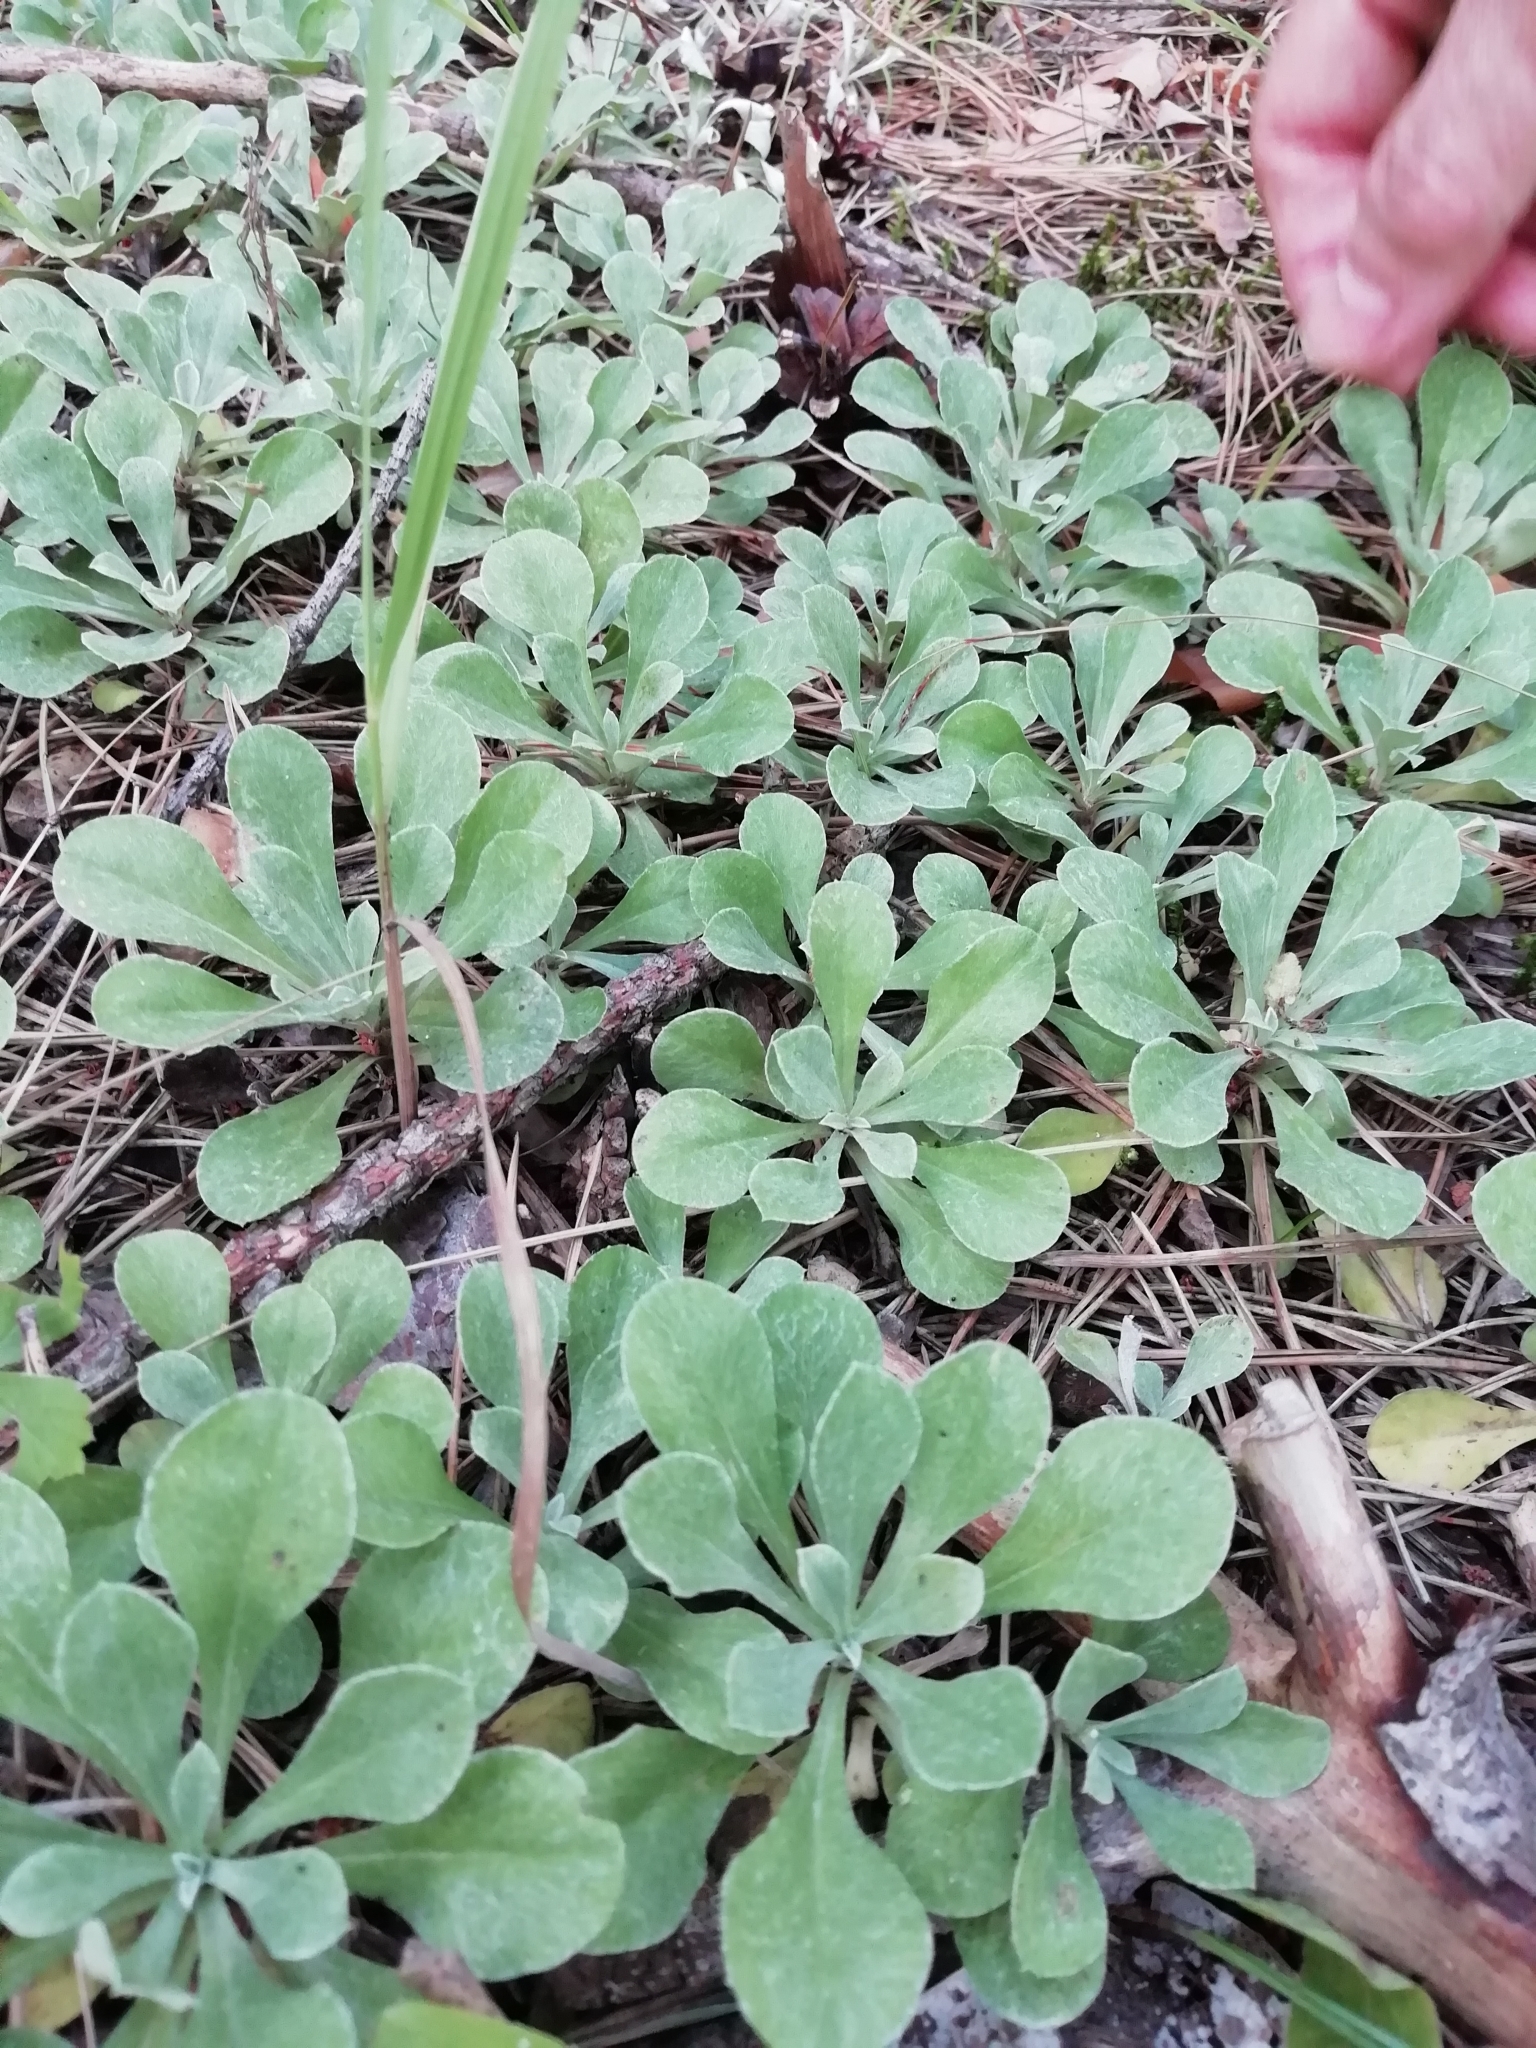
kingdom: Plantae
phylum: Tracheophyta
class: Magnoliopsida
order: Asterales
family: Asteraceae
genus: Antennaria
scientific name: Antennaria dioica
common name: Mountain everlasting
